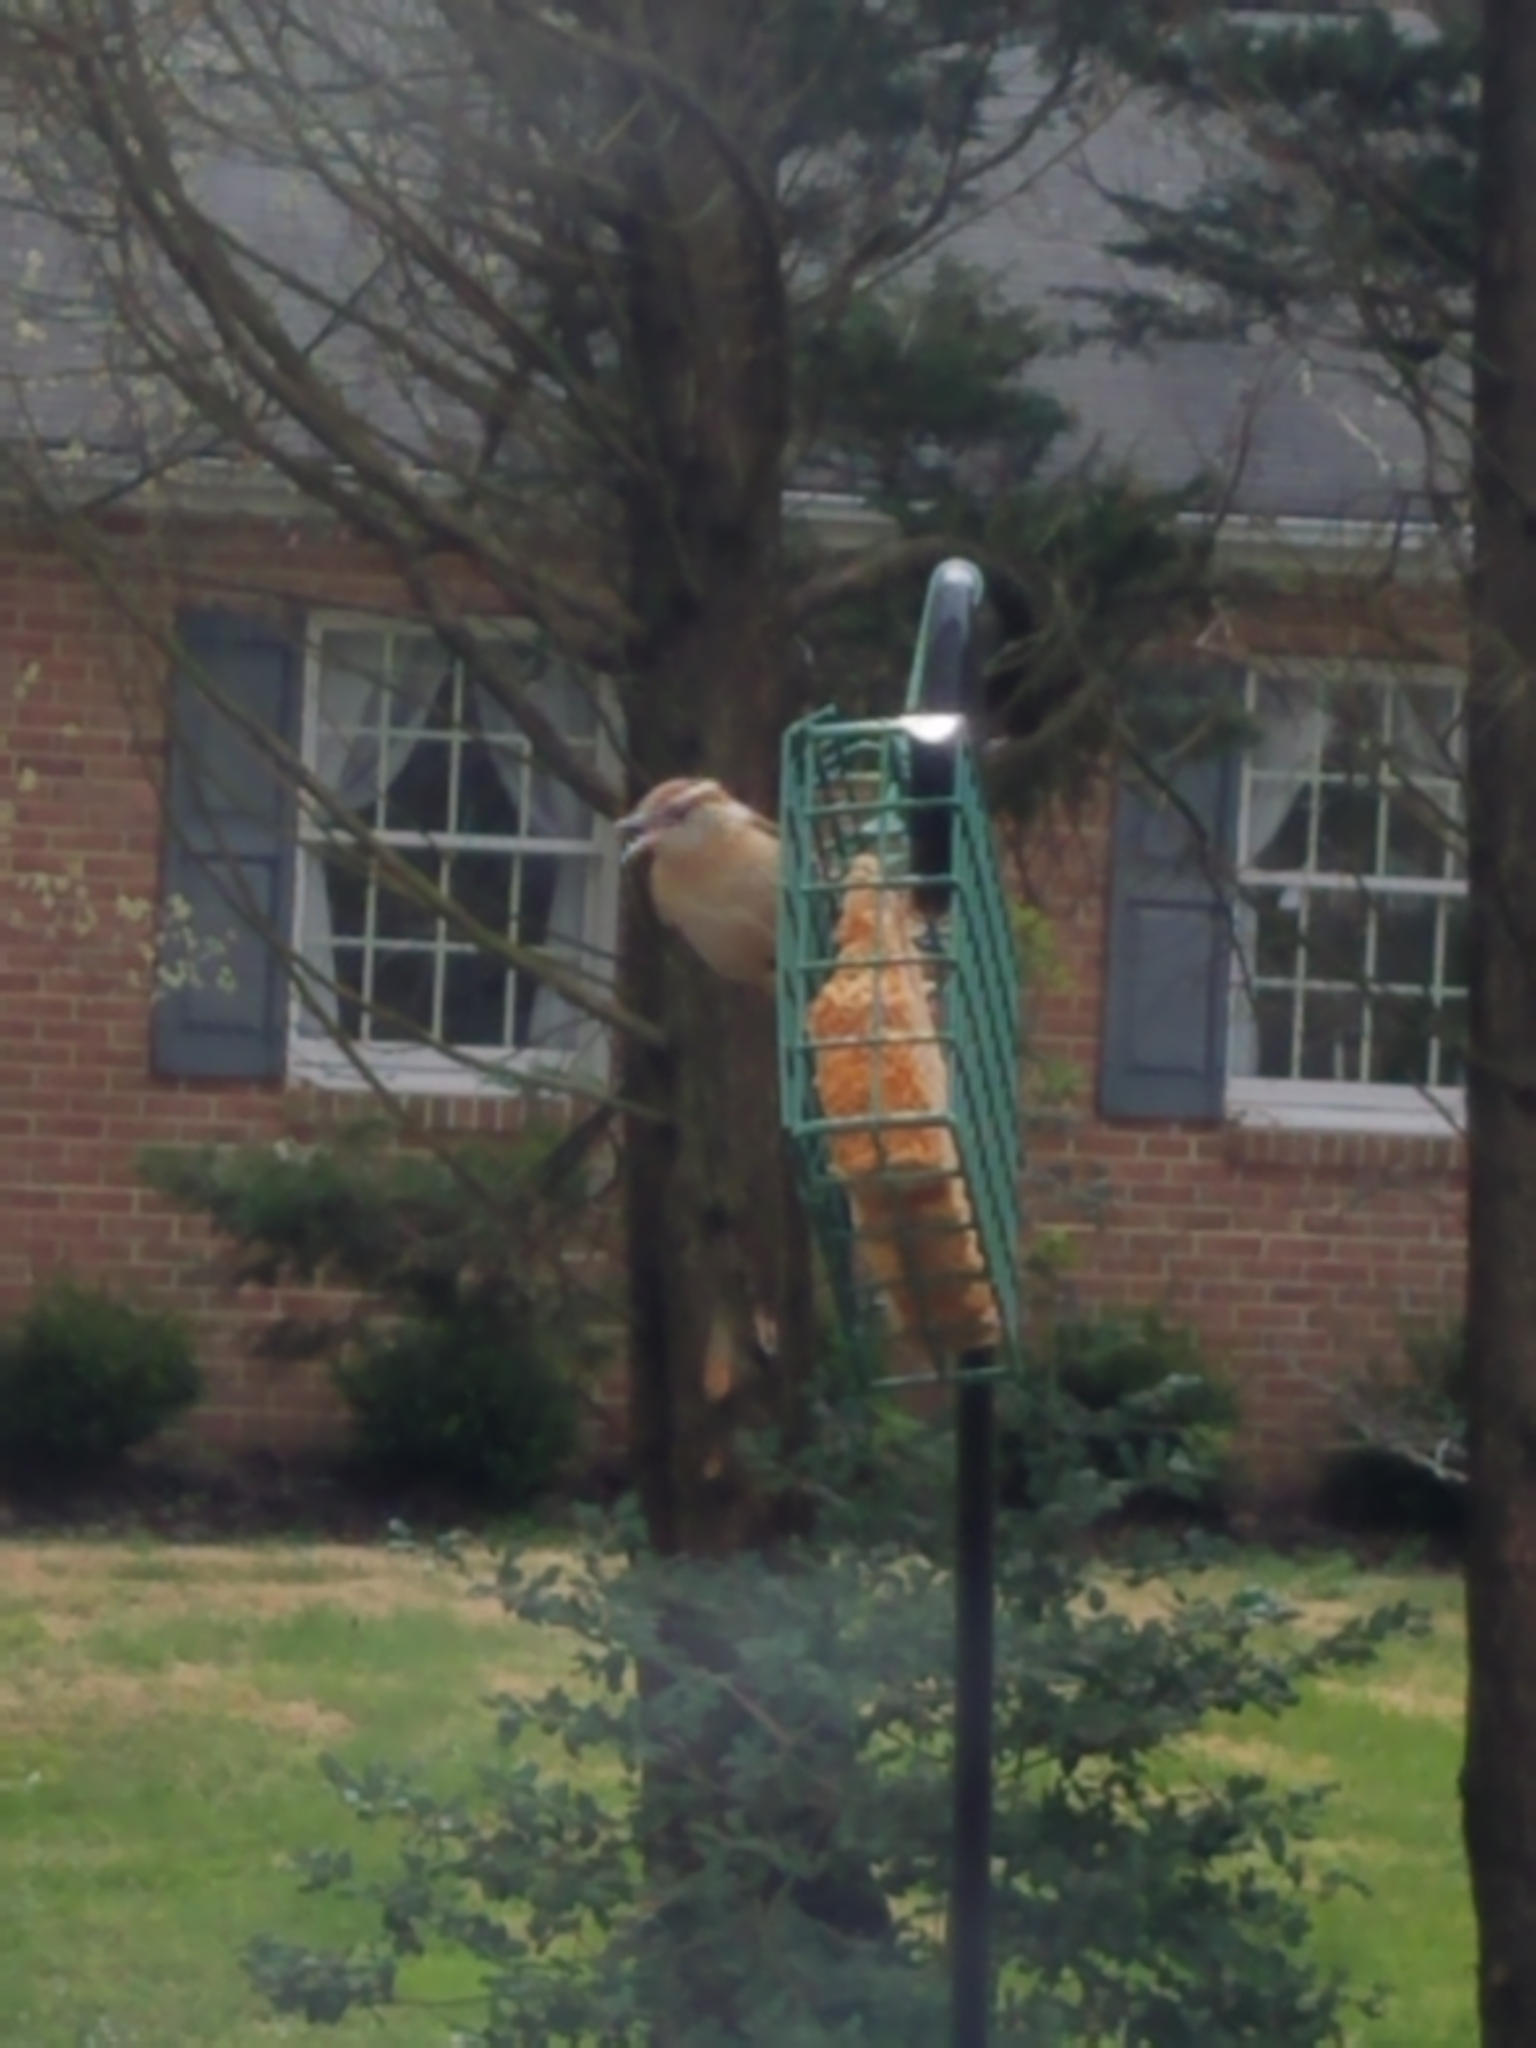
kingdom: Animalia
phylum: Chordata
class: Aves
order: Passeriformes
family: Troglodytidae
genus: Thryothorus
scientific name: Thryothorus ludovicianus
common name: Carolina wren
